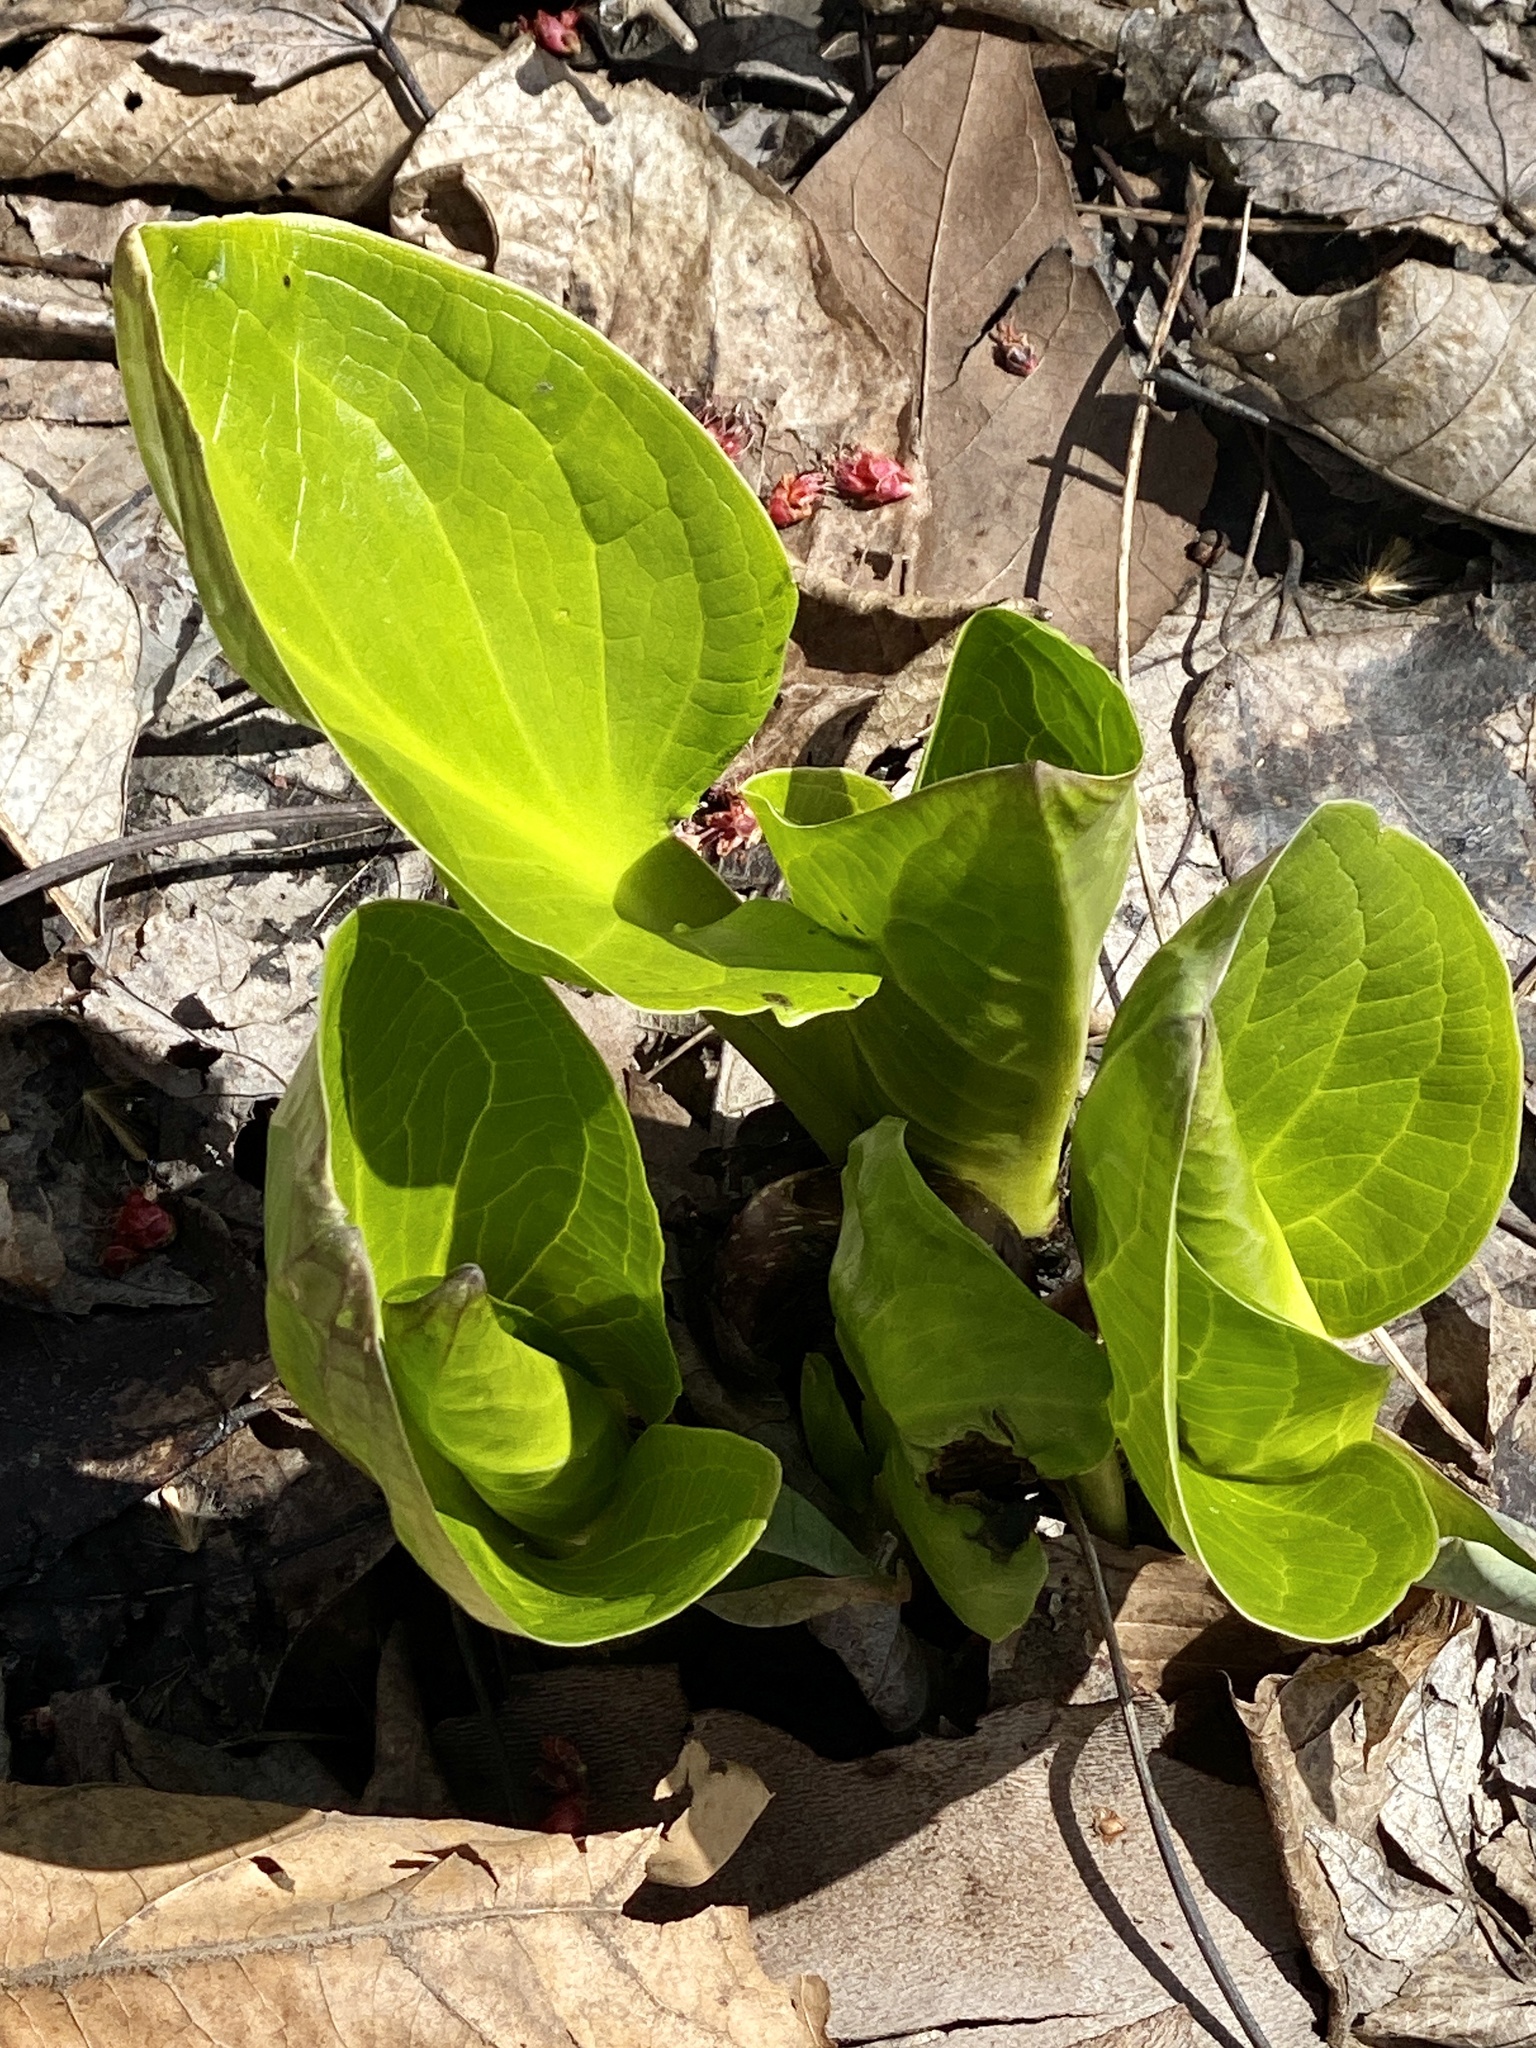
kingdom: Plantae
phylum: Tracheophyta
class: Liliopsida
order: Alismatales
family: Araceae
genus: Symplocarpus
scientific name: Symplocarpus foetidus
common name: Eastern skunk cabbage
